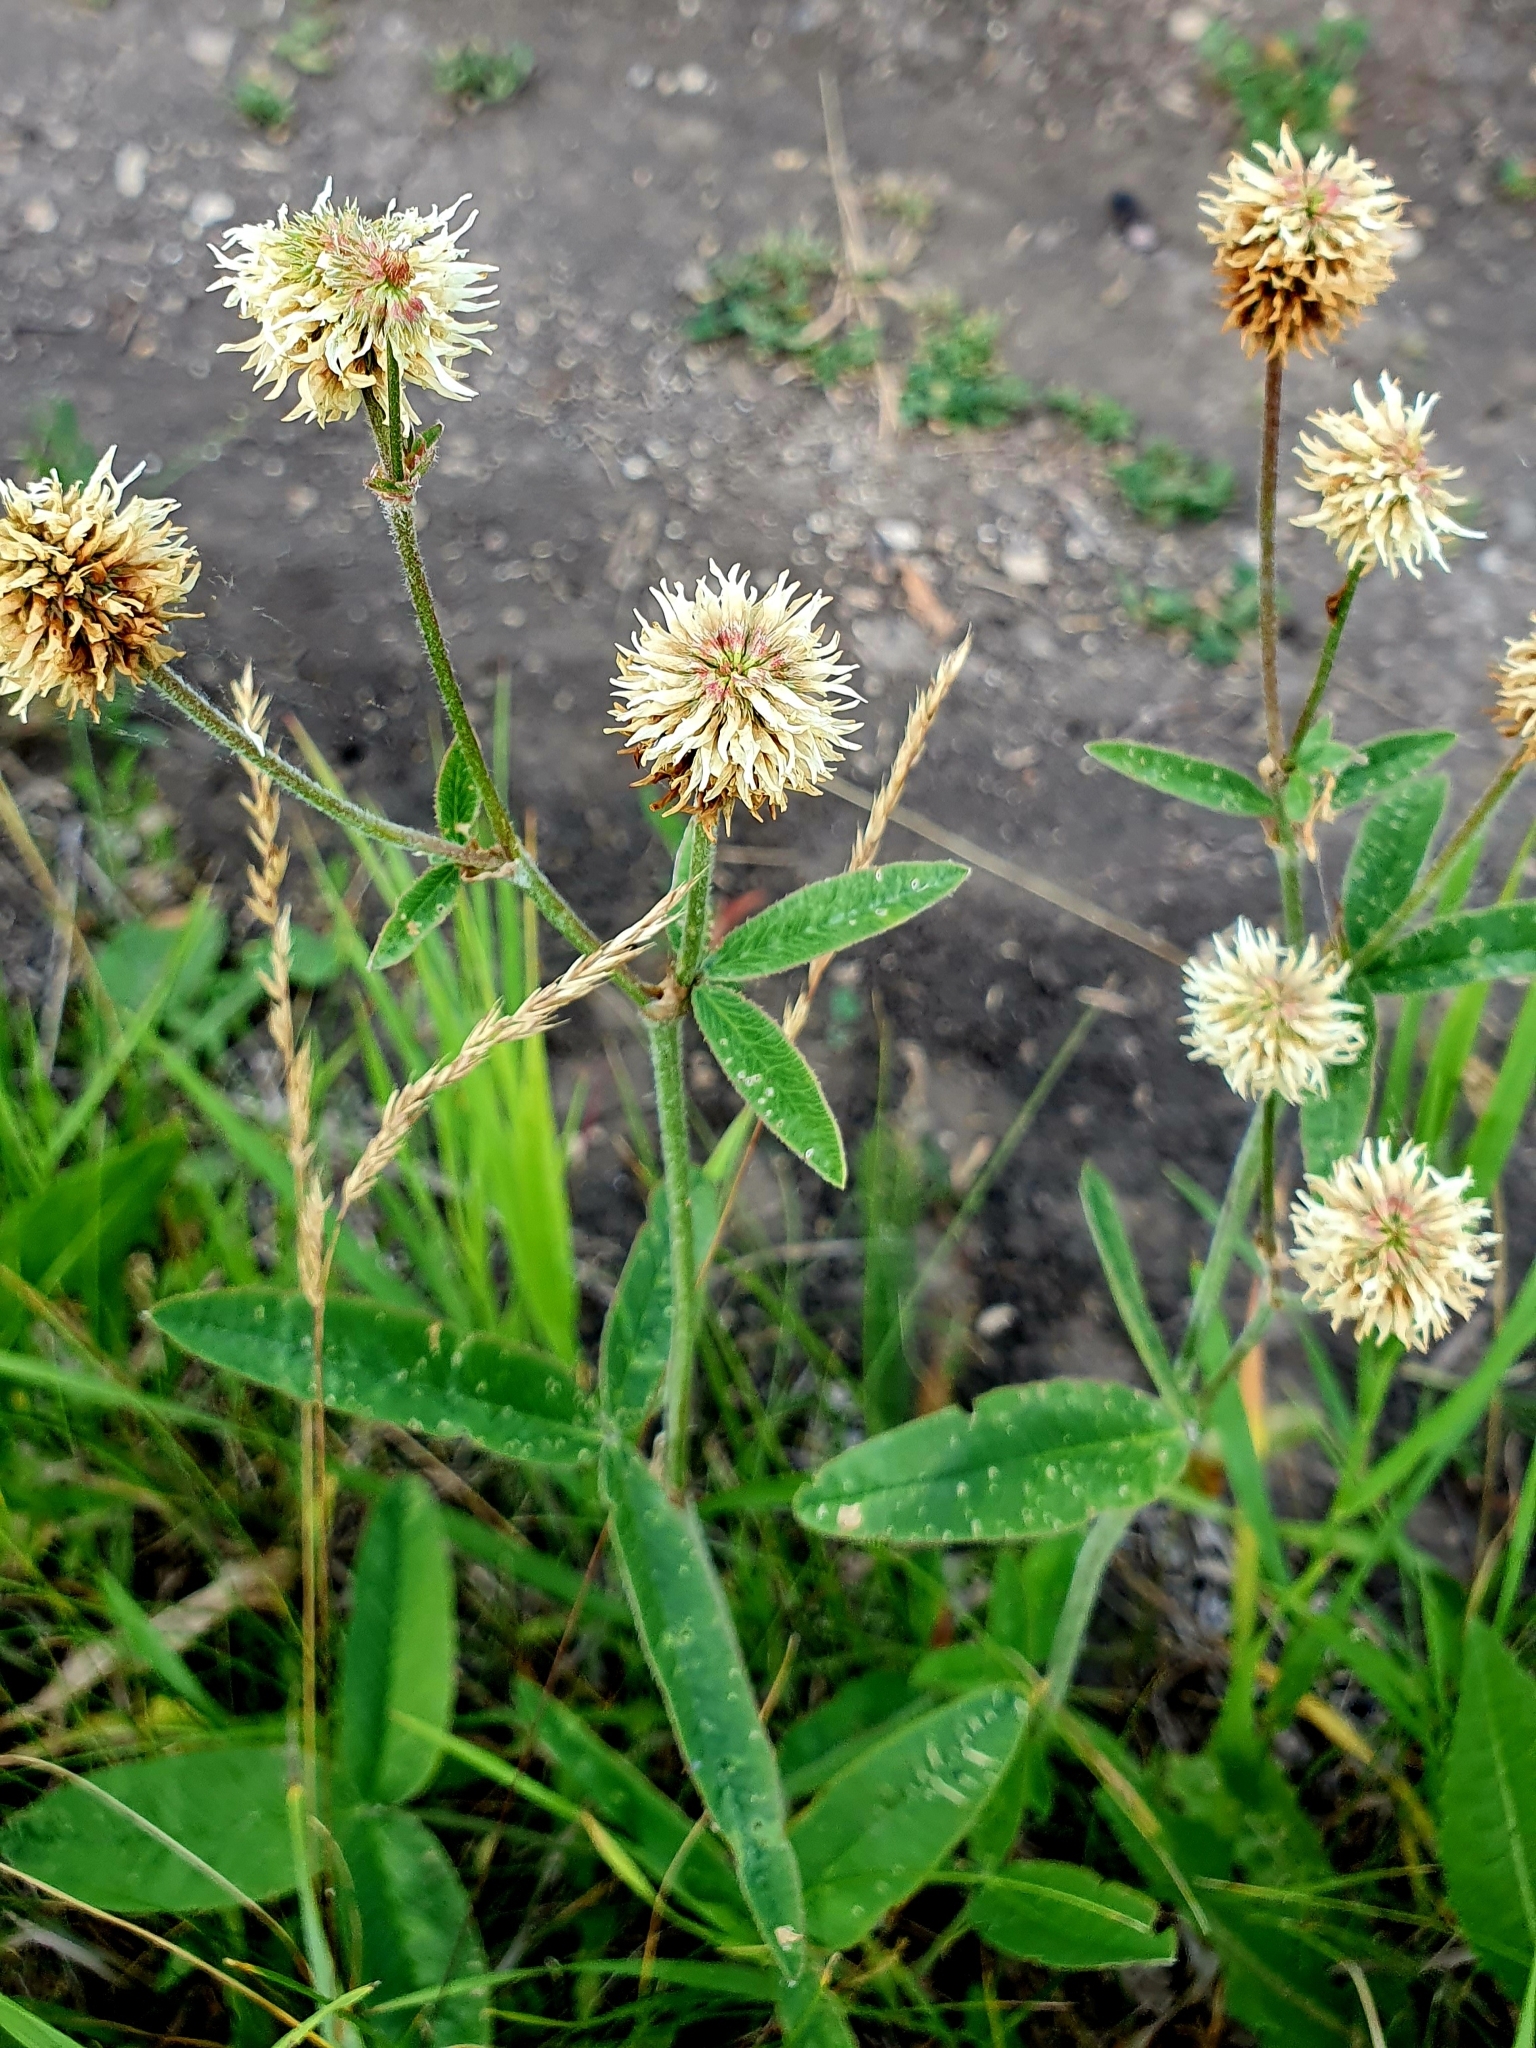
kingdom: Plantae
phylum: Tracheophyta
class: Magnoliopsida
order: Fabales
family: Fabaceae
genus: Trifolium
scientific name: Trifolium montanum
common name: Mountain clover
